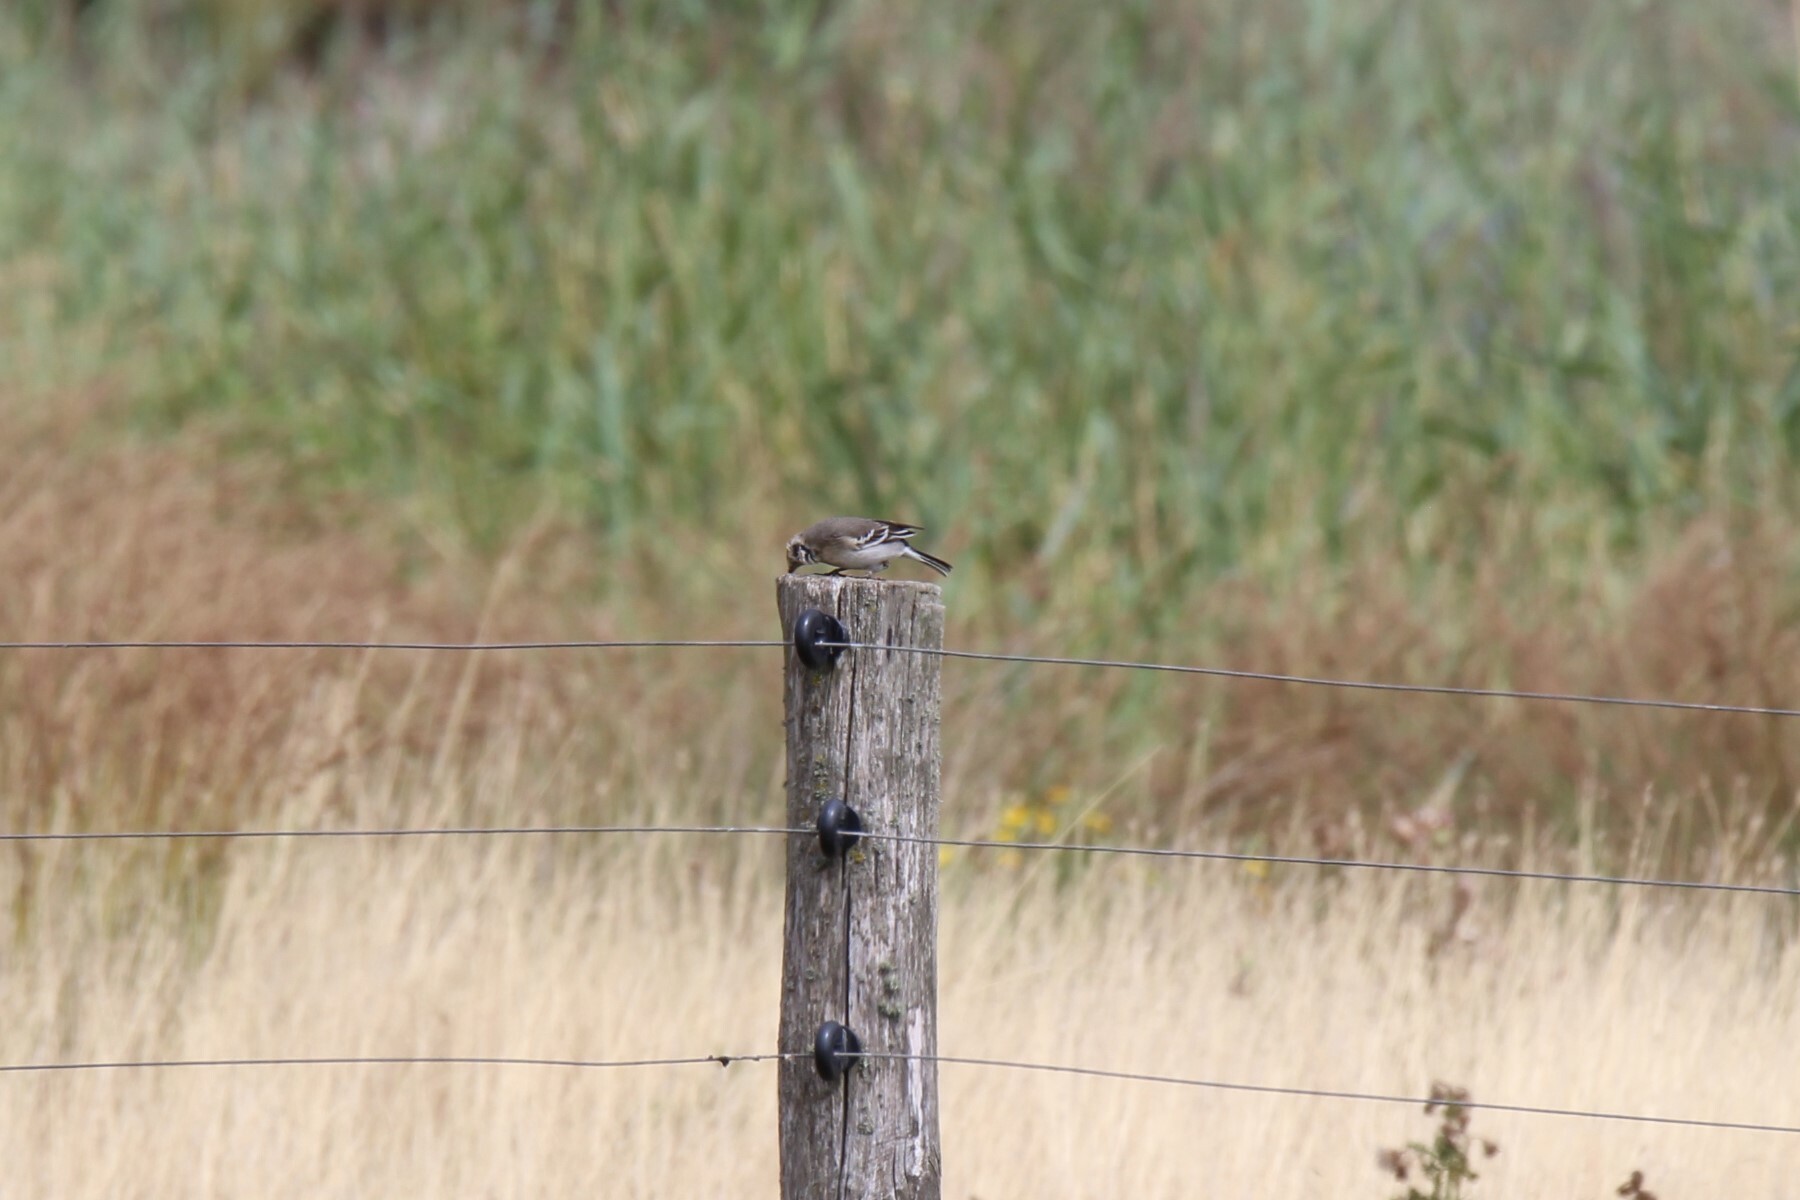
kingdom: Animalia
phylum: Chordata
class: Aves
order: Passeriformes
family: Motacillidae
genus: Motacilla
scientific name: Motacilla citreola
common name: Citrine wagtail
